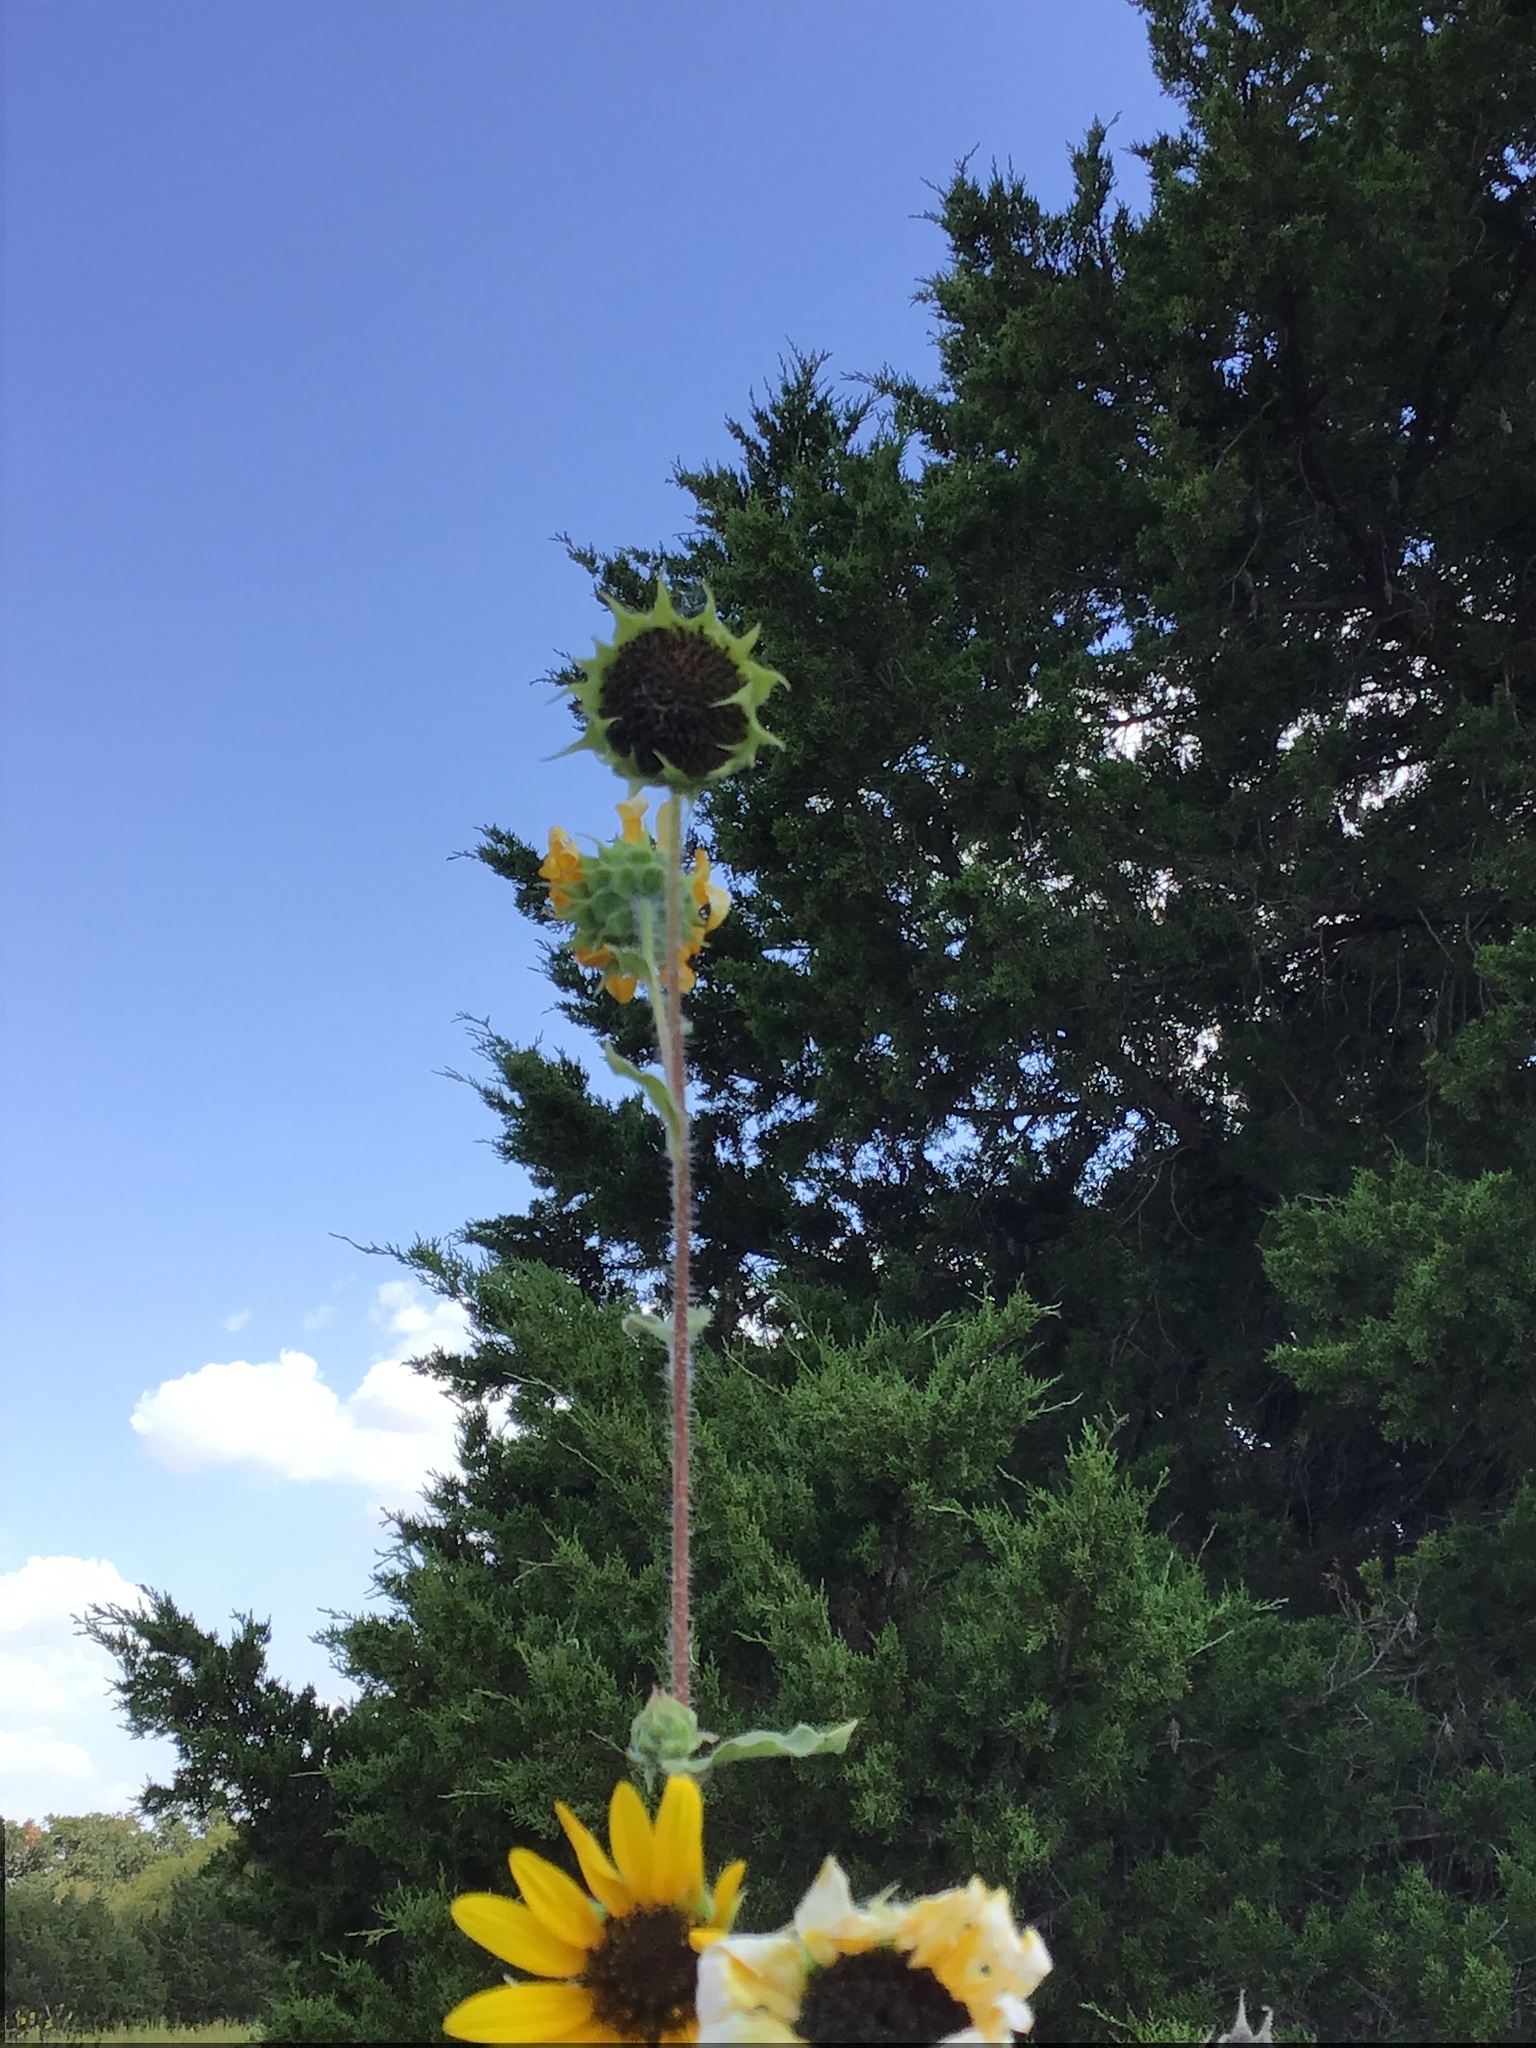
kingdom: Plantae
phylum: Tracheophyta
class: Magnoliopsida
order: Asterales
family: Asteraceae
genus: Helianthus
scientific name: Helianthus annuus
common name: Sunflower
